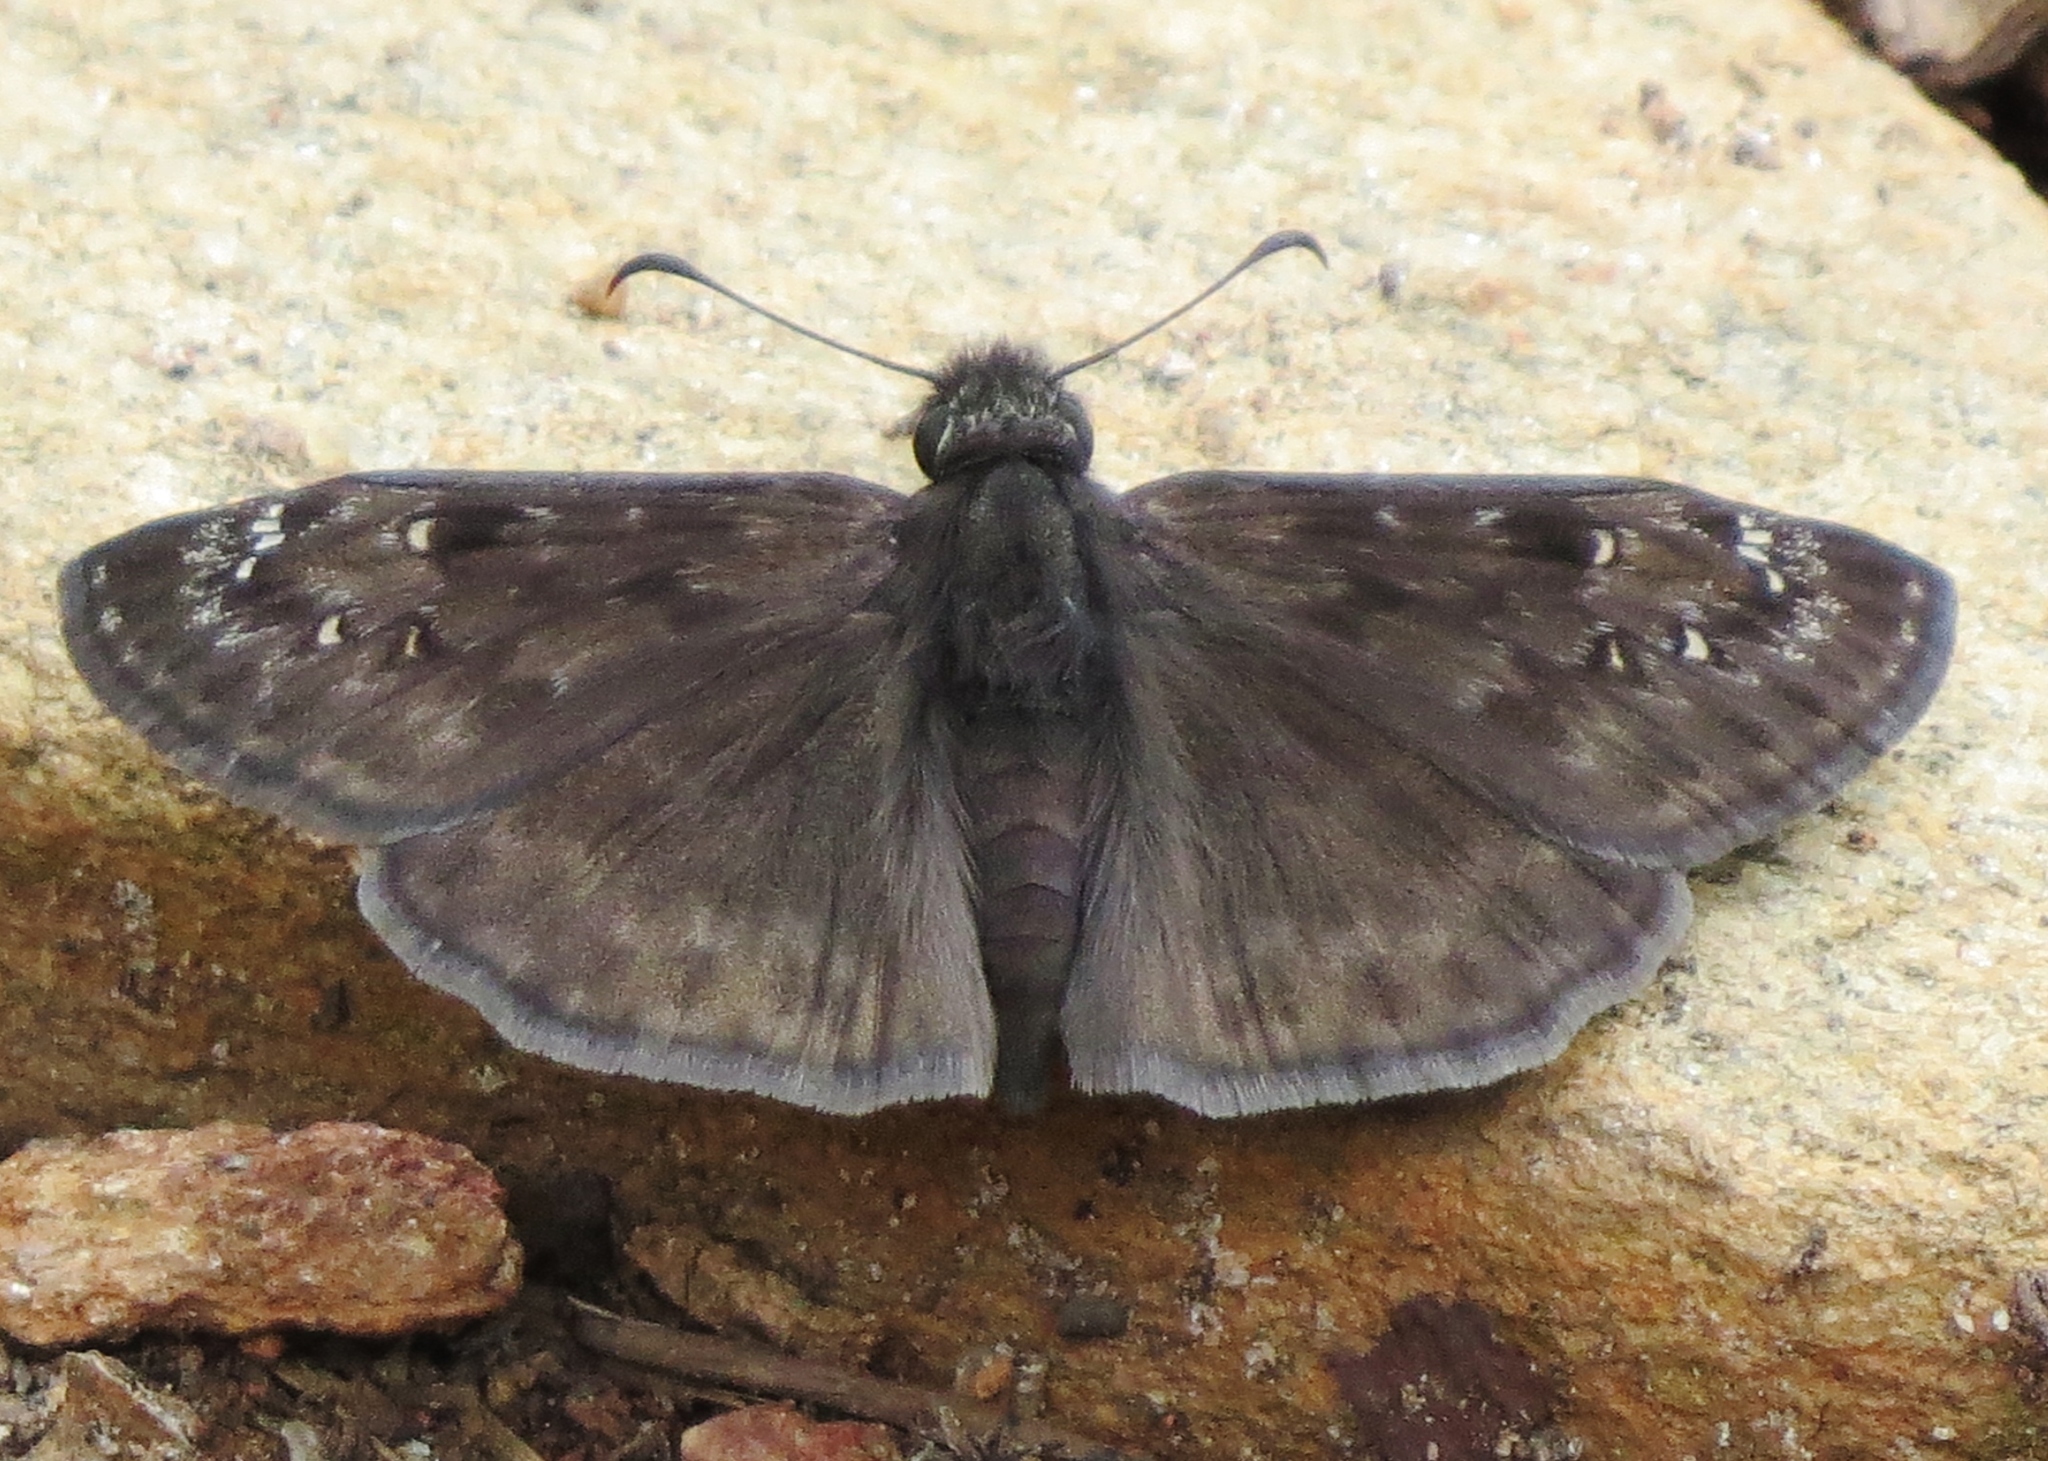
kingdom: Animalia
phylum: Arthropoda
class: Insecta
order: Lepidoptera
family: Hesperiidae
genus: Erynnis
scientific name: Erynnis horatius
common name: Horace's duskywing
